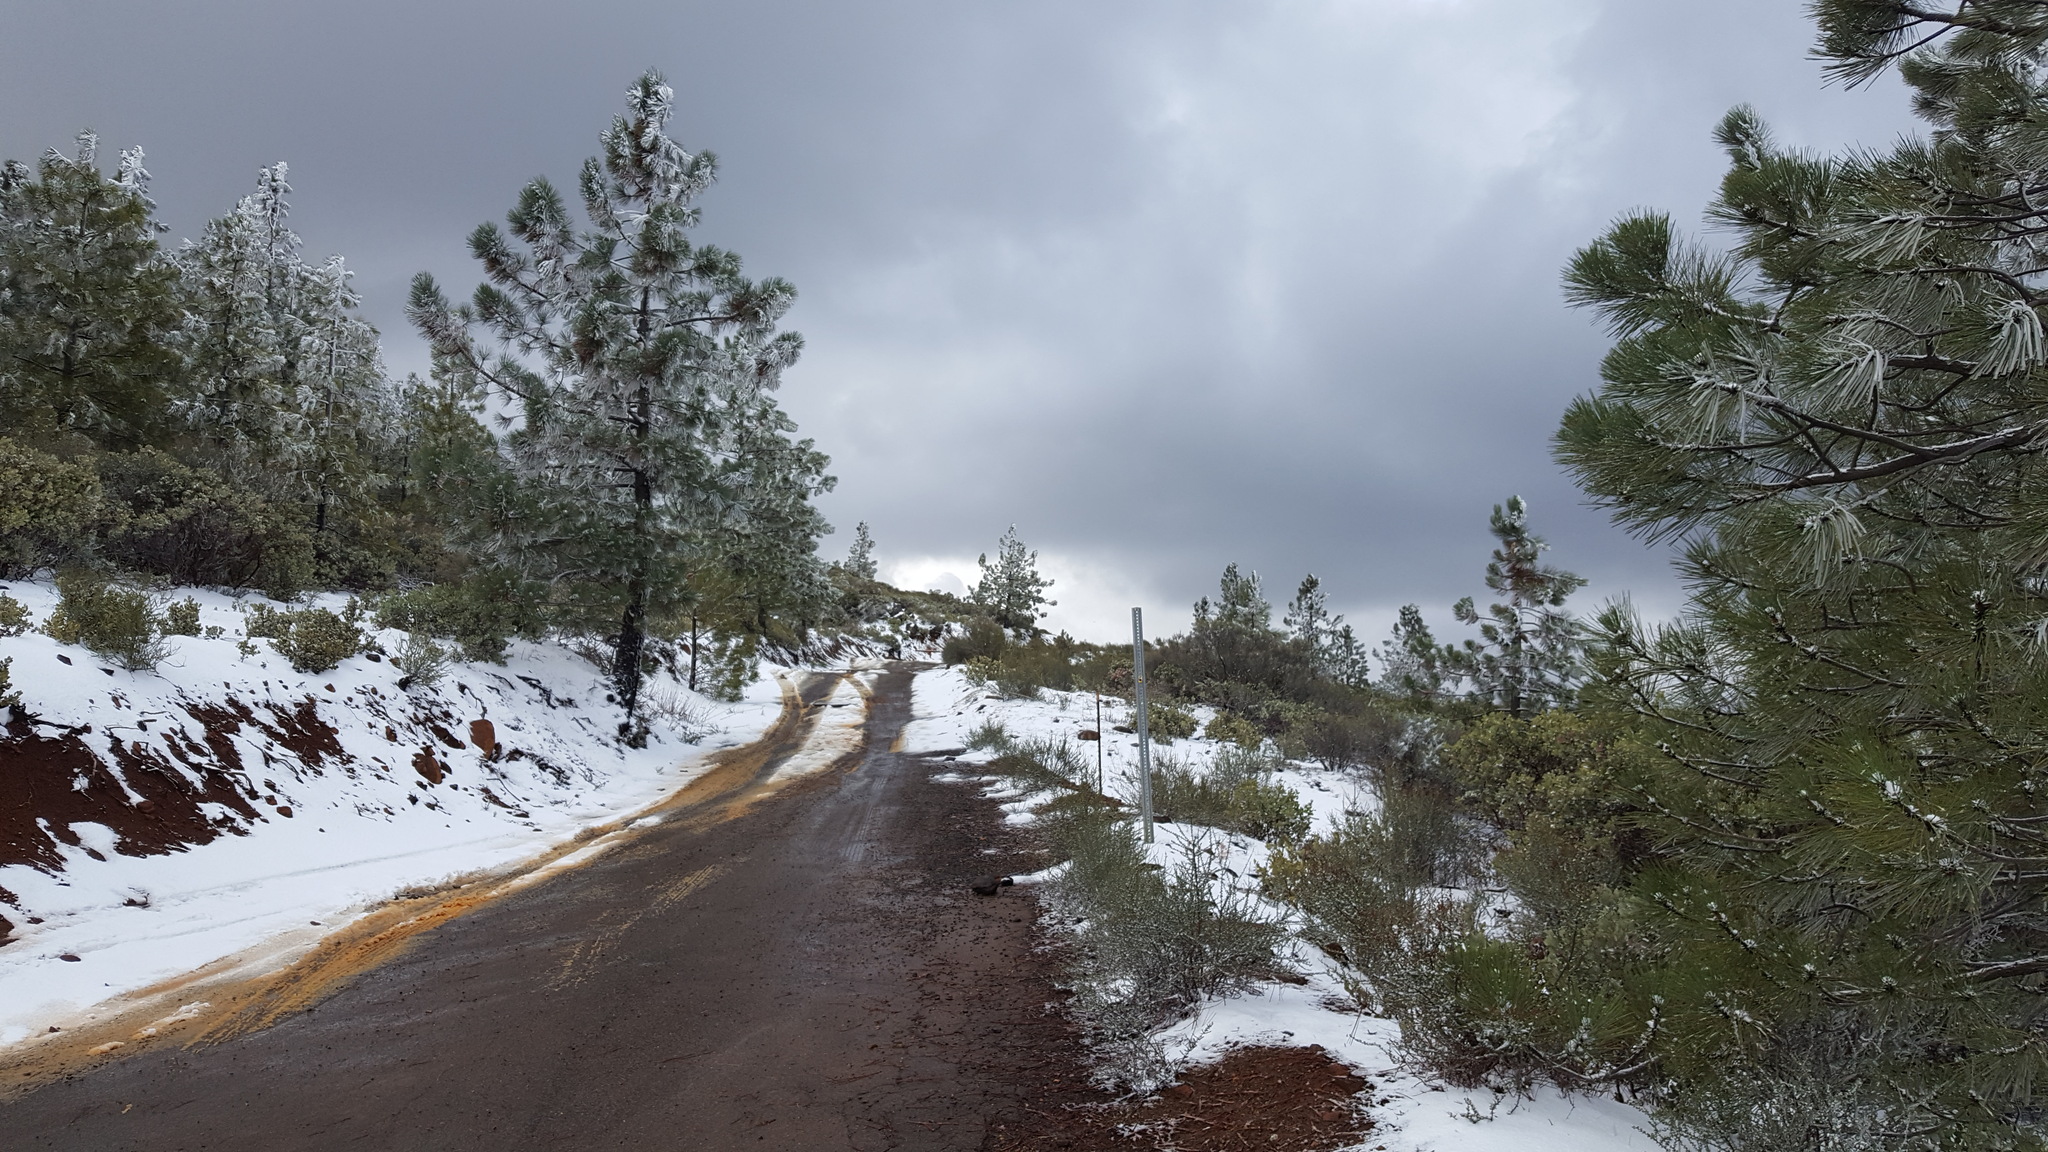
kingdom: Plantae
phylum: Tracheophyta
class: Pinopsida
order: Pinales
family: Pinaceae
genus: Pinus
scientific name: Pinus coulteri
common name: Coulter pine
